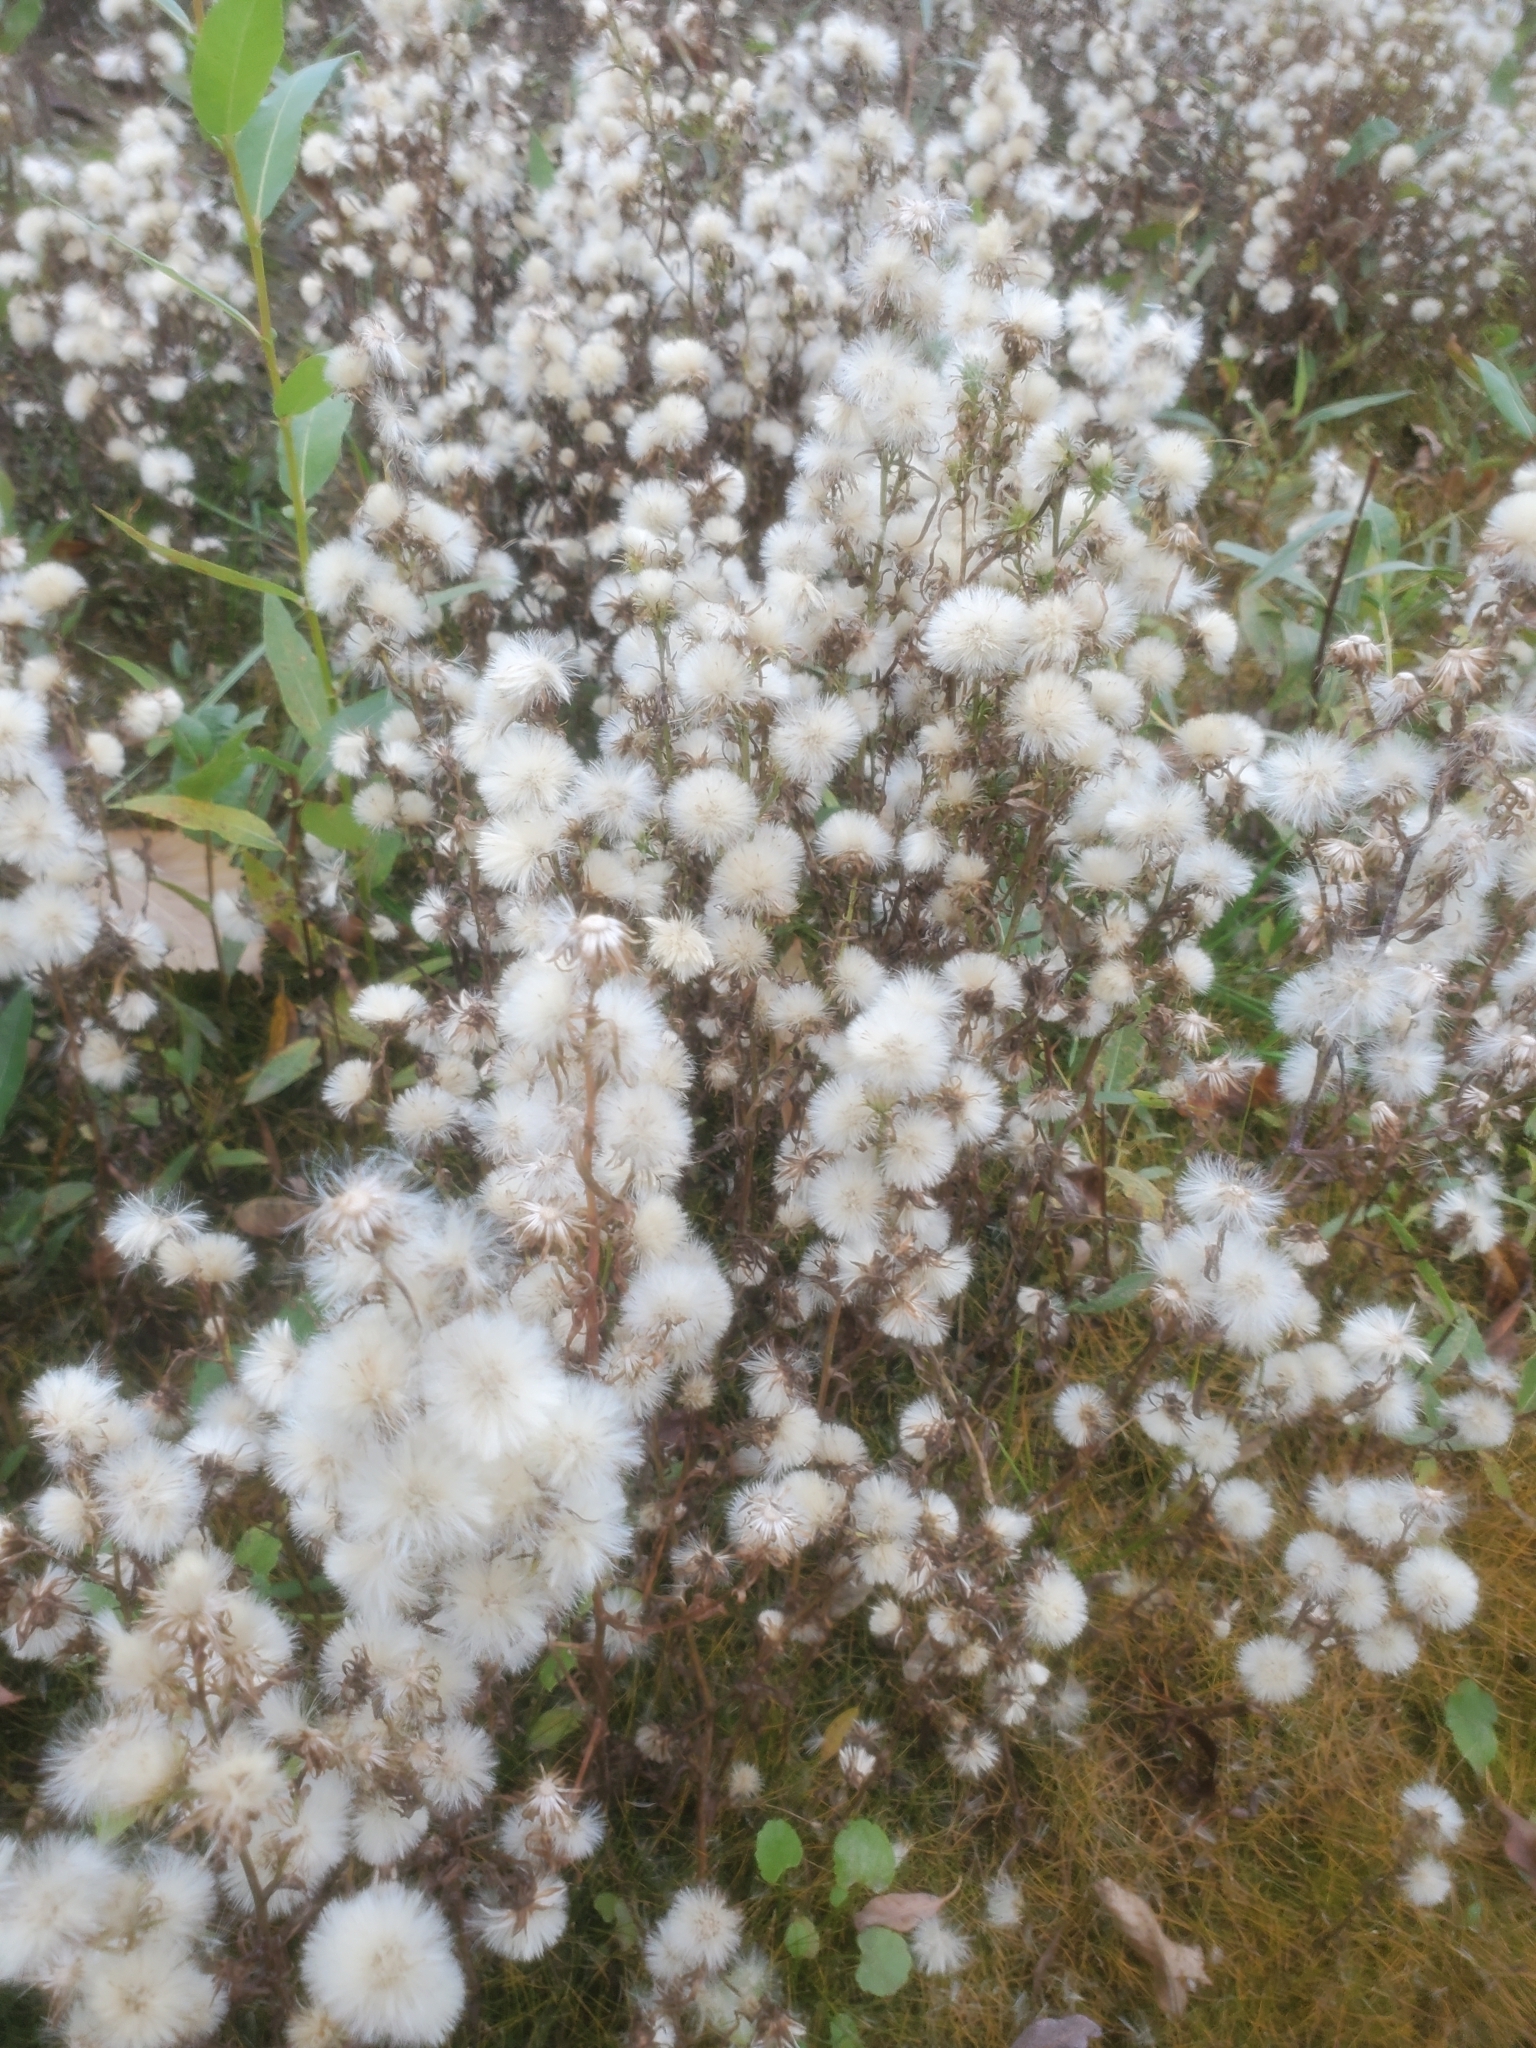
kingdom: Plantae
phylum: Tracheophyta
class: Magnoliopsida
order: Asterales
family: Asteraceae
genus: Symphyotrichum
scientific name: Symphyotrichum ciliatum
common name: Rayless annual aster
